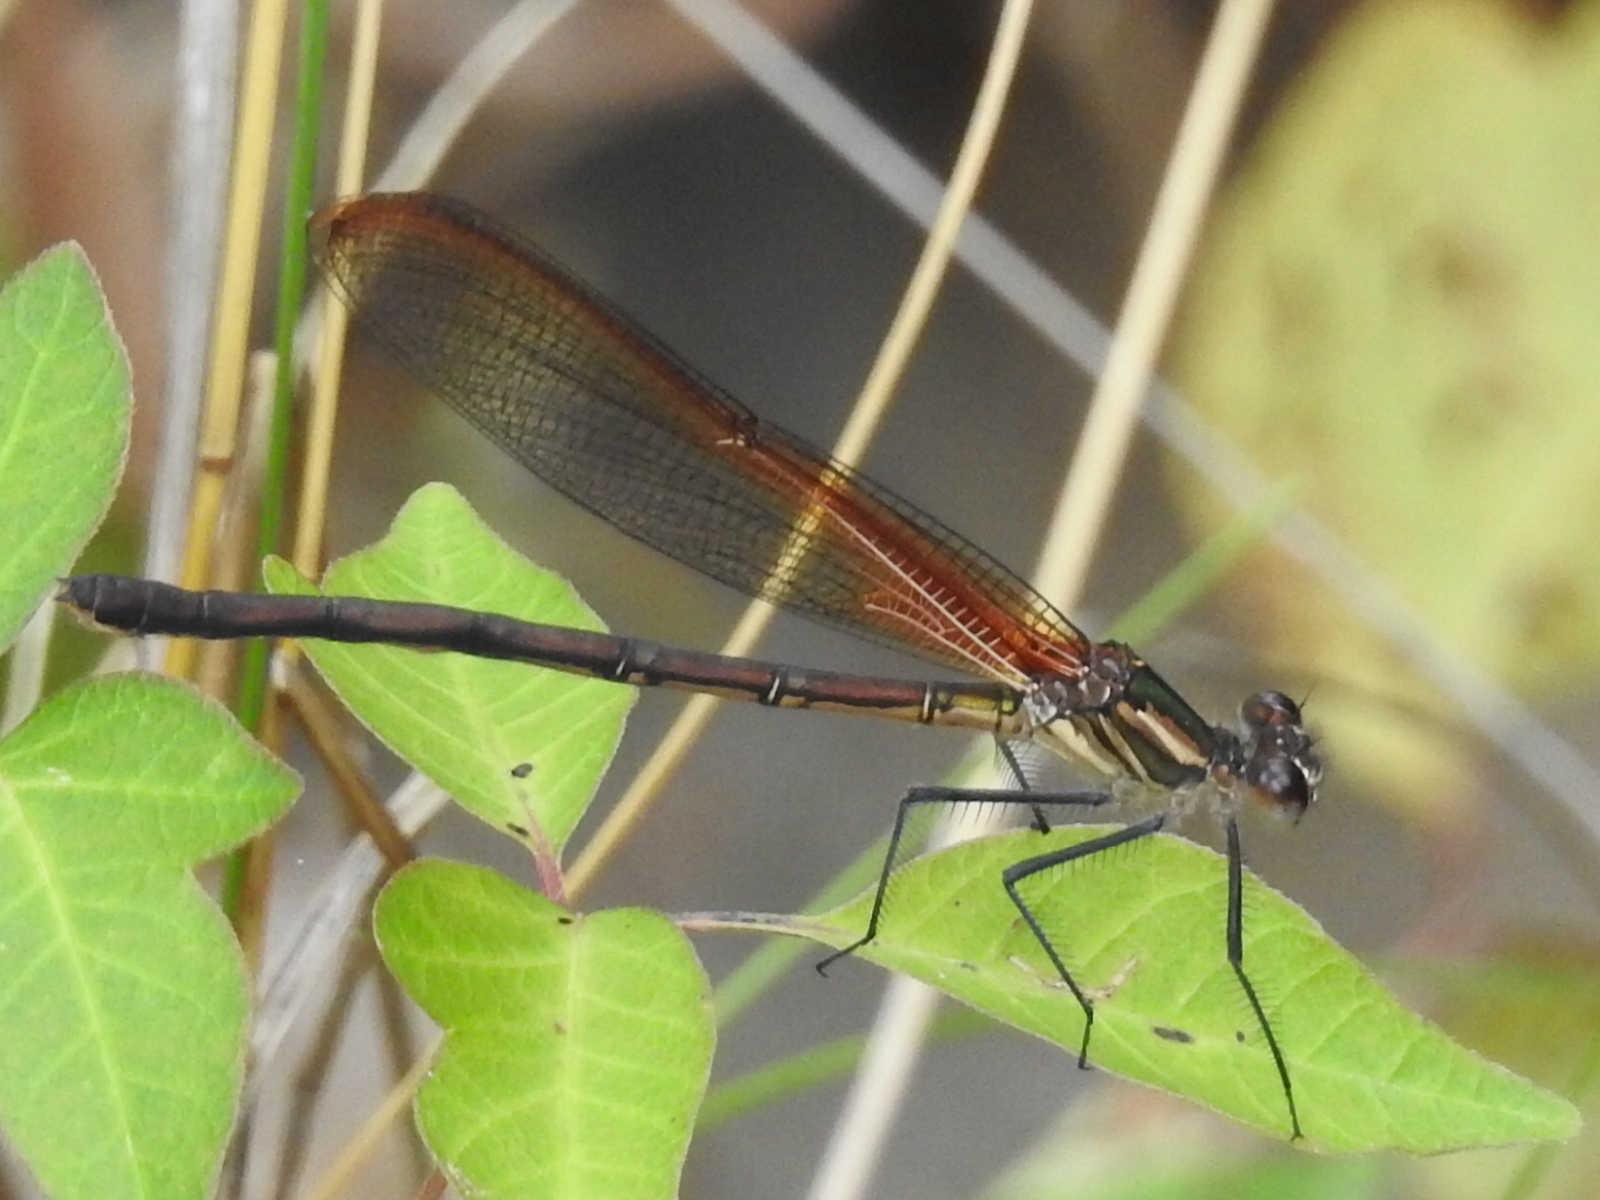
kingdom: Animalia
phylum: Arthropoda
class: Insecta
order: Odonata
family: Calopterygidae
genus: Hetaerina
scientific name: Hetaerina vulnerata
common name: Canyon rubyspot
